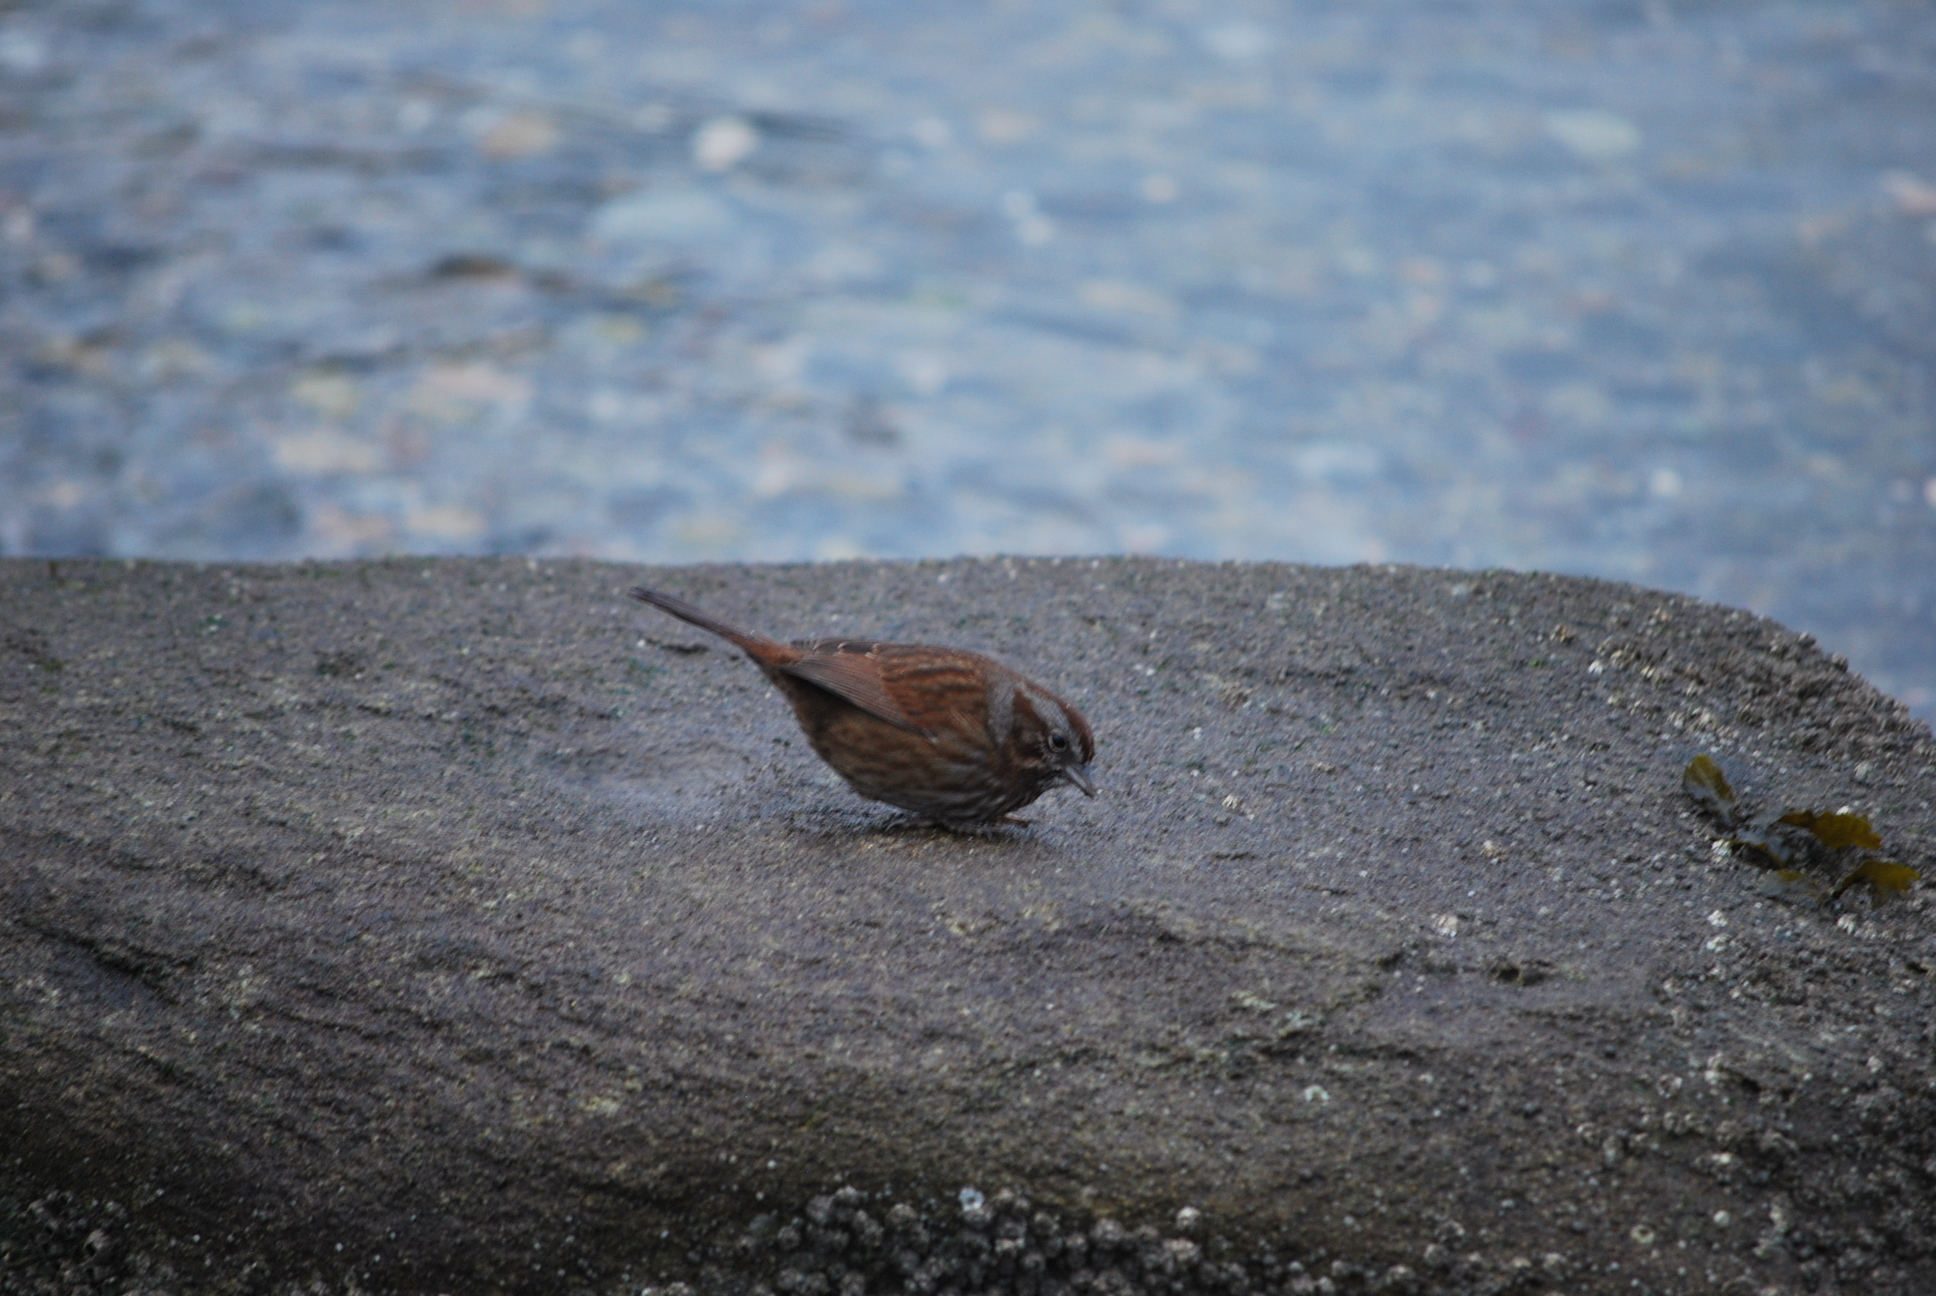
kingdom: Animalia
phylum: Chordata
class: Aves
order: Passeriformes
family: Passerellidae
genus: Melospiza
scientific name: Melospiza melodia
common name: Song sparrow
